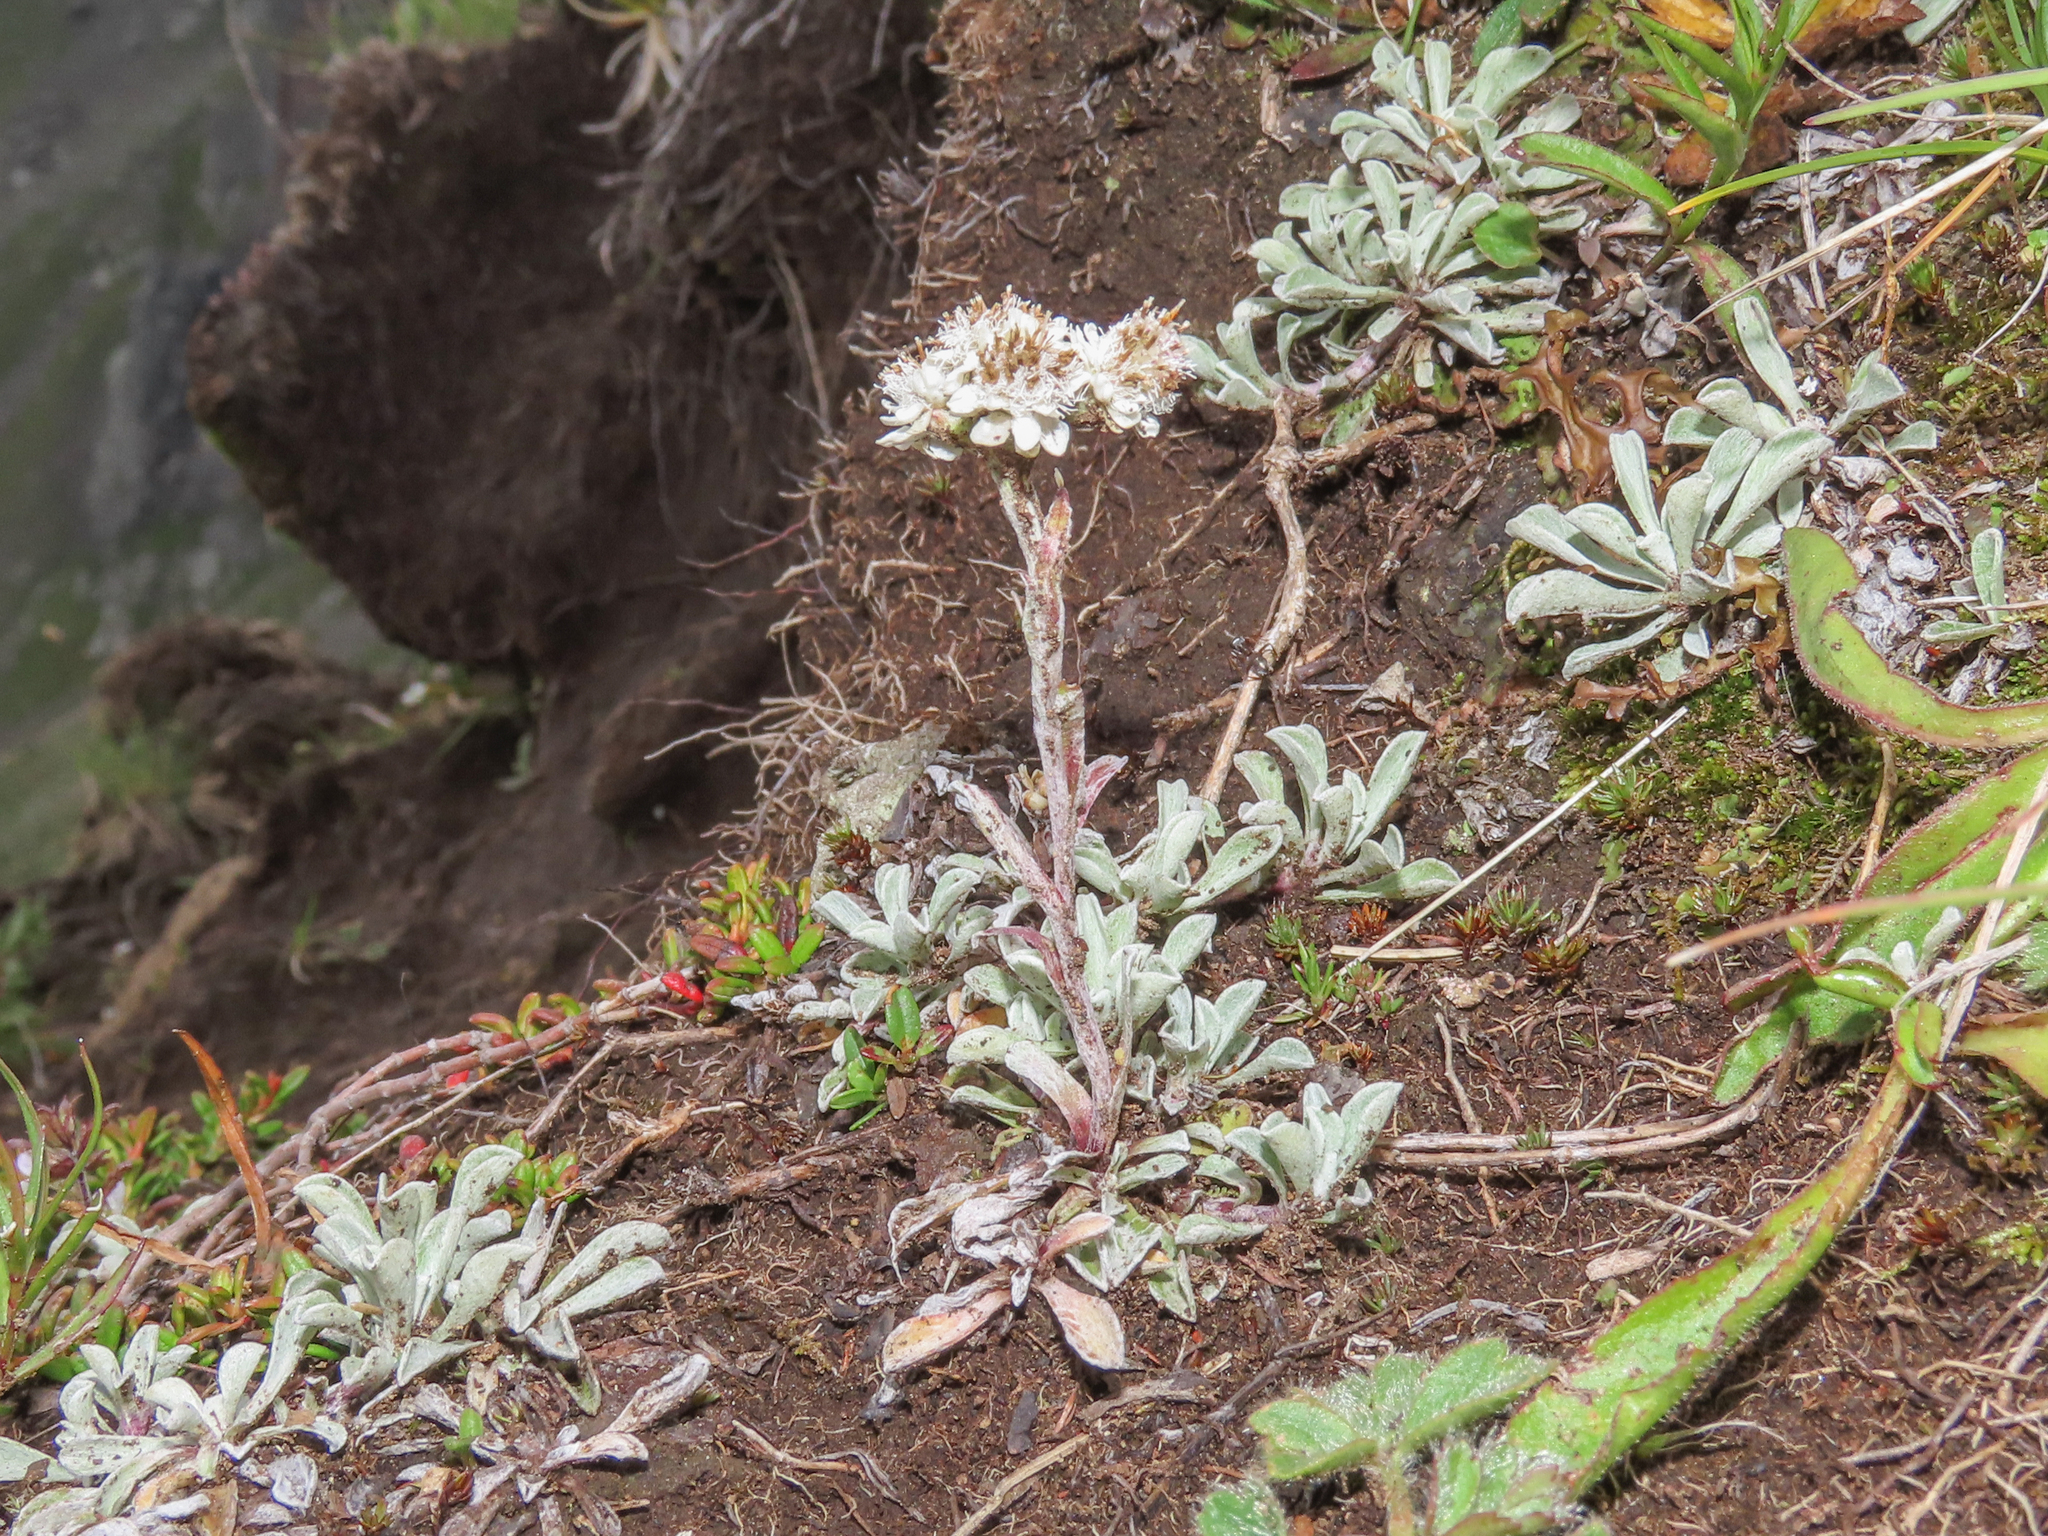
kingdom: Plantae
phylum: Tracheophyta
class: Magnoliopsida
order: Asterales
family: Asteraceae
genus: Antennaria
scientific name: Antennaria dioica
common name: Mountain everlasting
